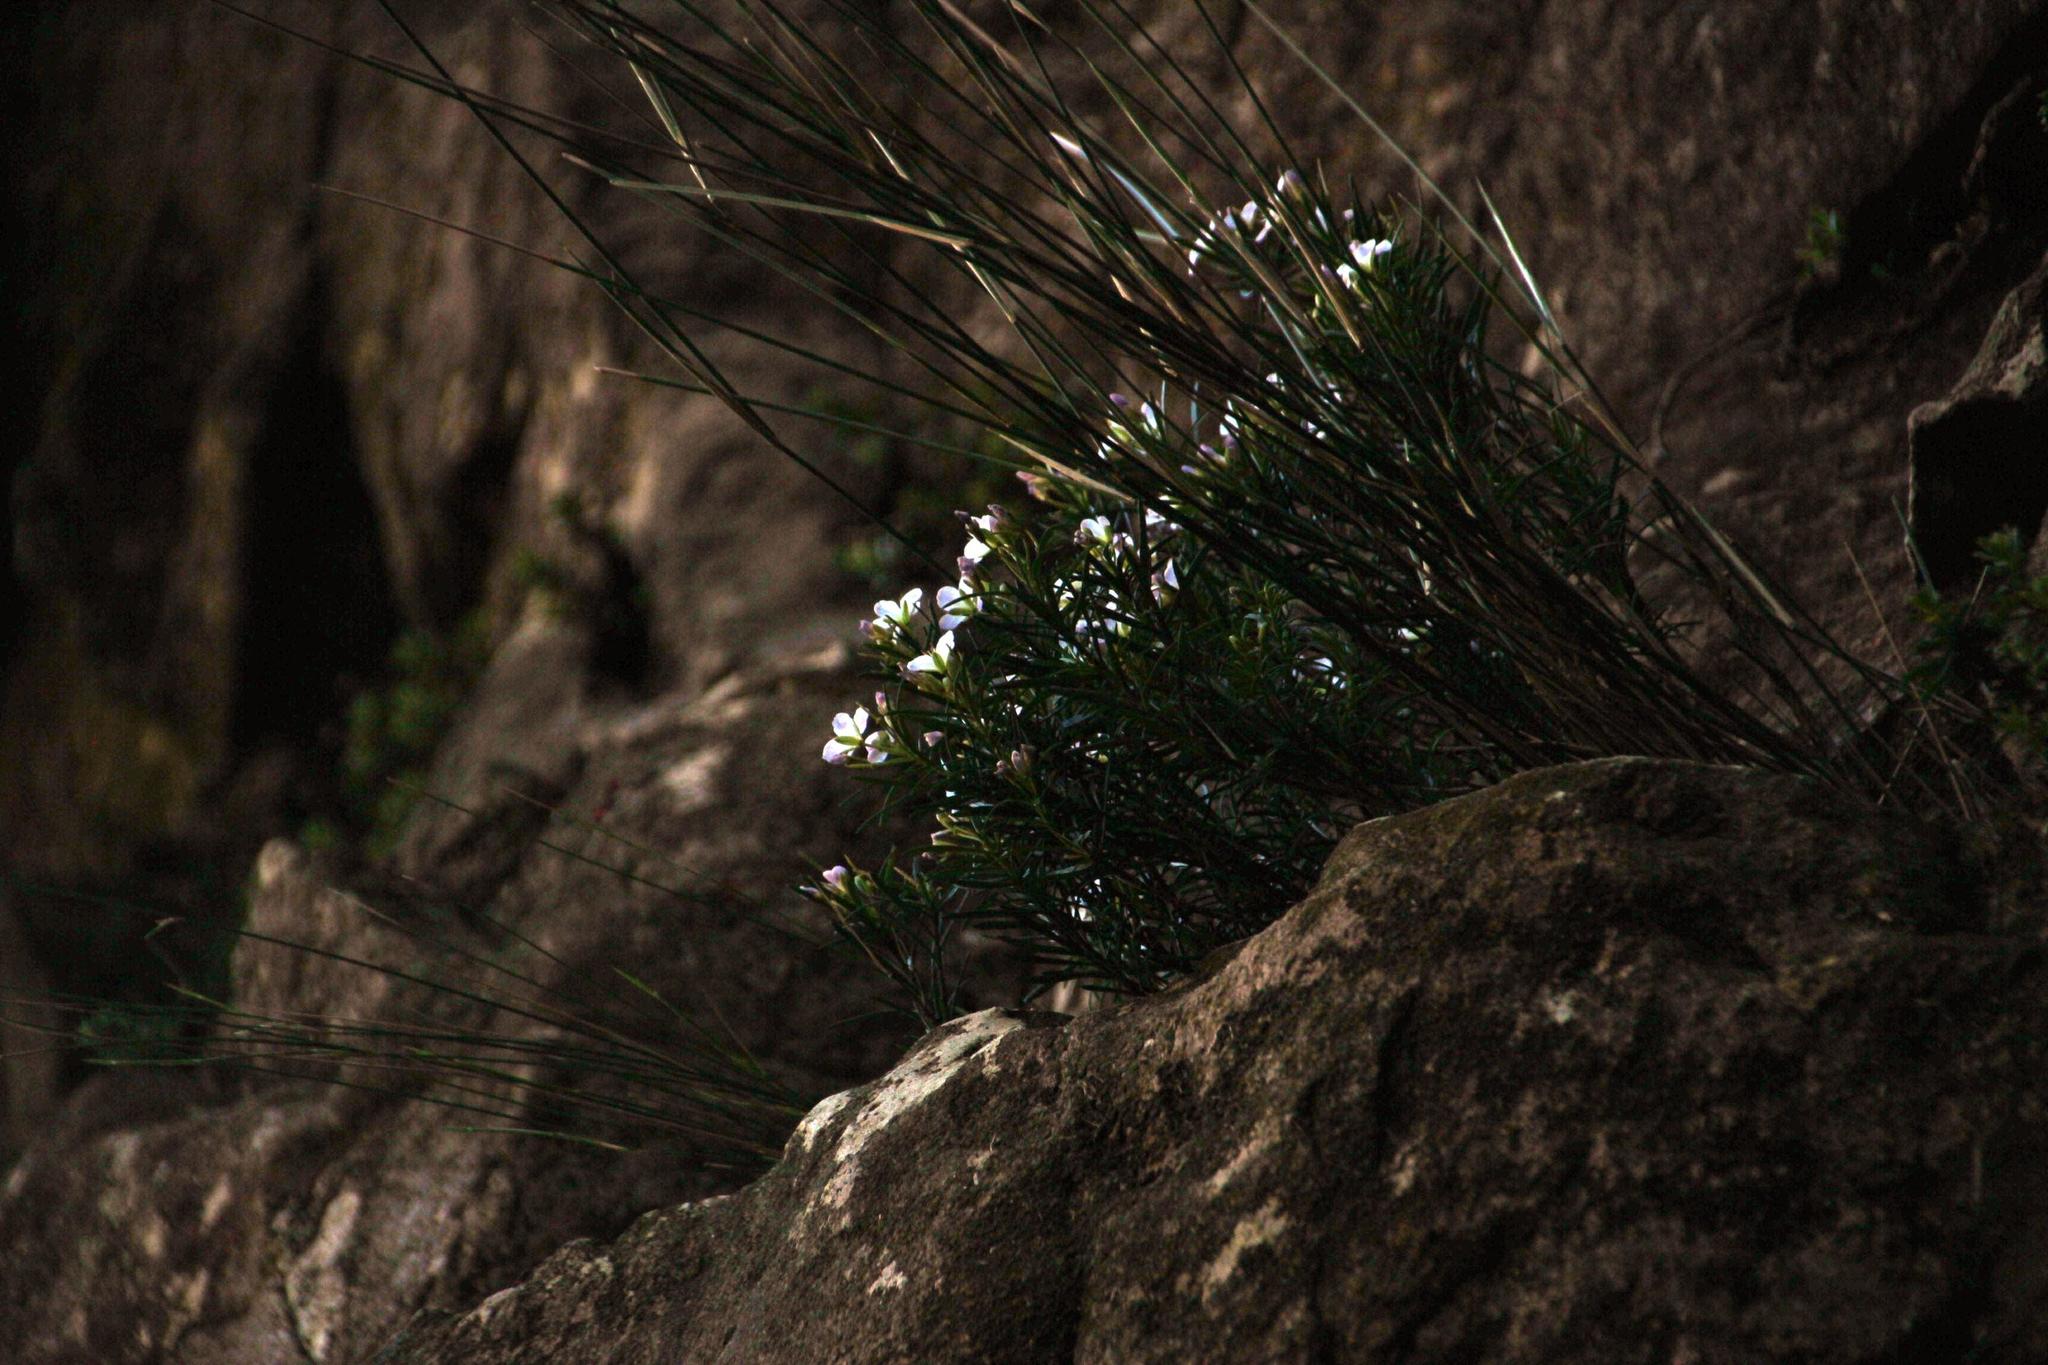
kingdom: Plantae
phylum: Tracheophyta
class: Magnoliopsida
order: Brassicales
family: Brassicaceae
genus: Heliophila
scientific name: Heliophila scoparia
